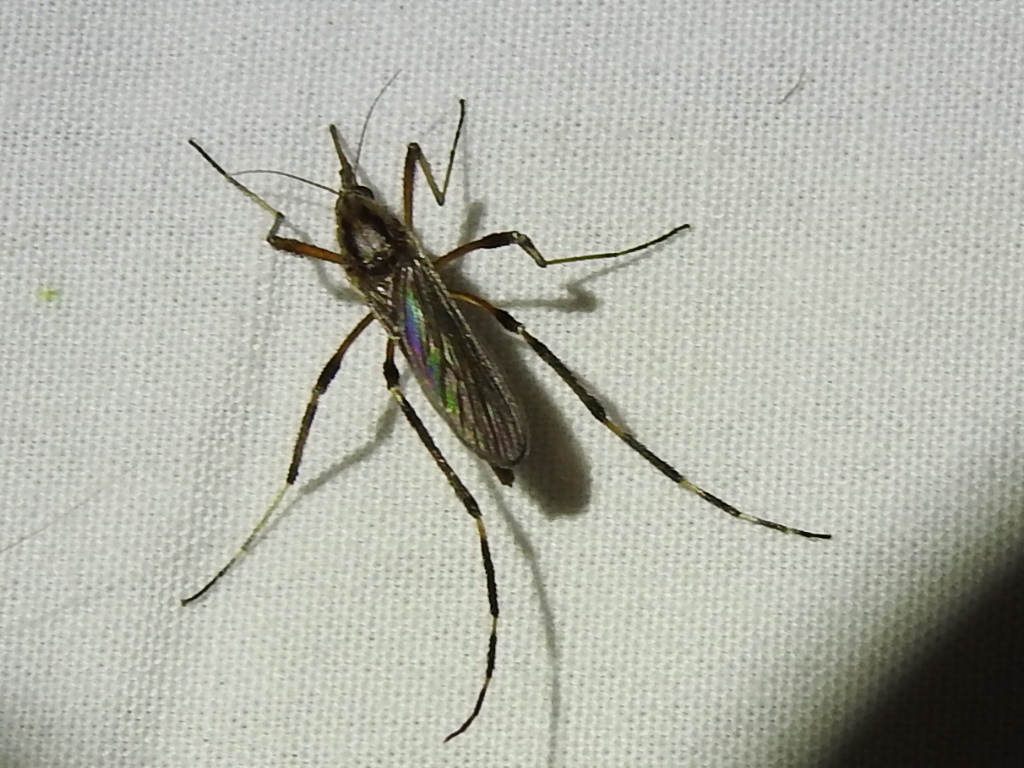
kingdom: Animalia
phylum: Arthropoda
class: Insecta
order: Diptera
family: Culicidae
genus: Psorophora
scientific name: Psorophora ciliata
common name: Gallinipper
